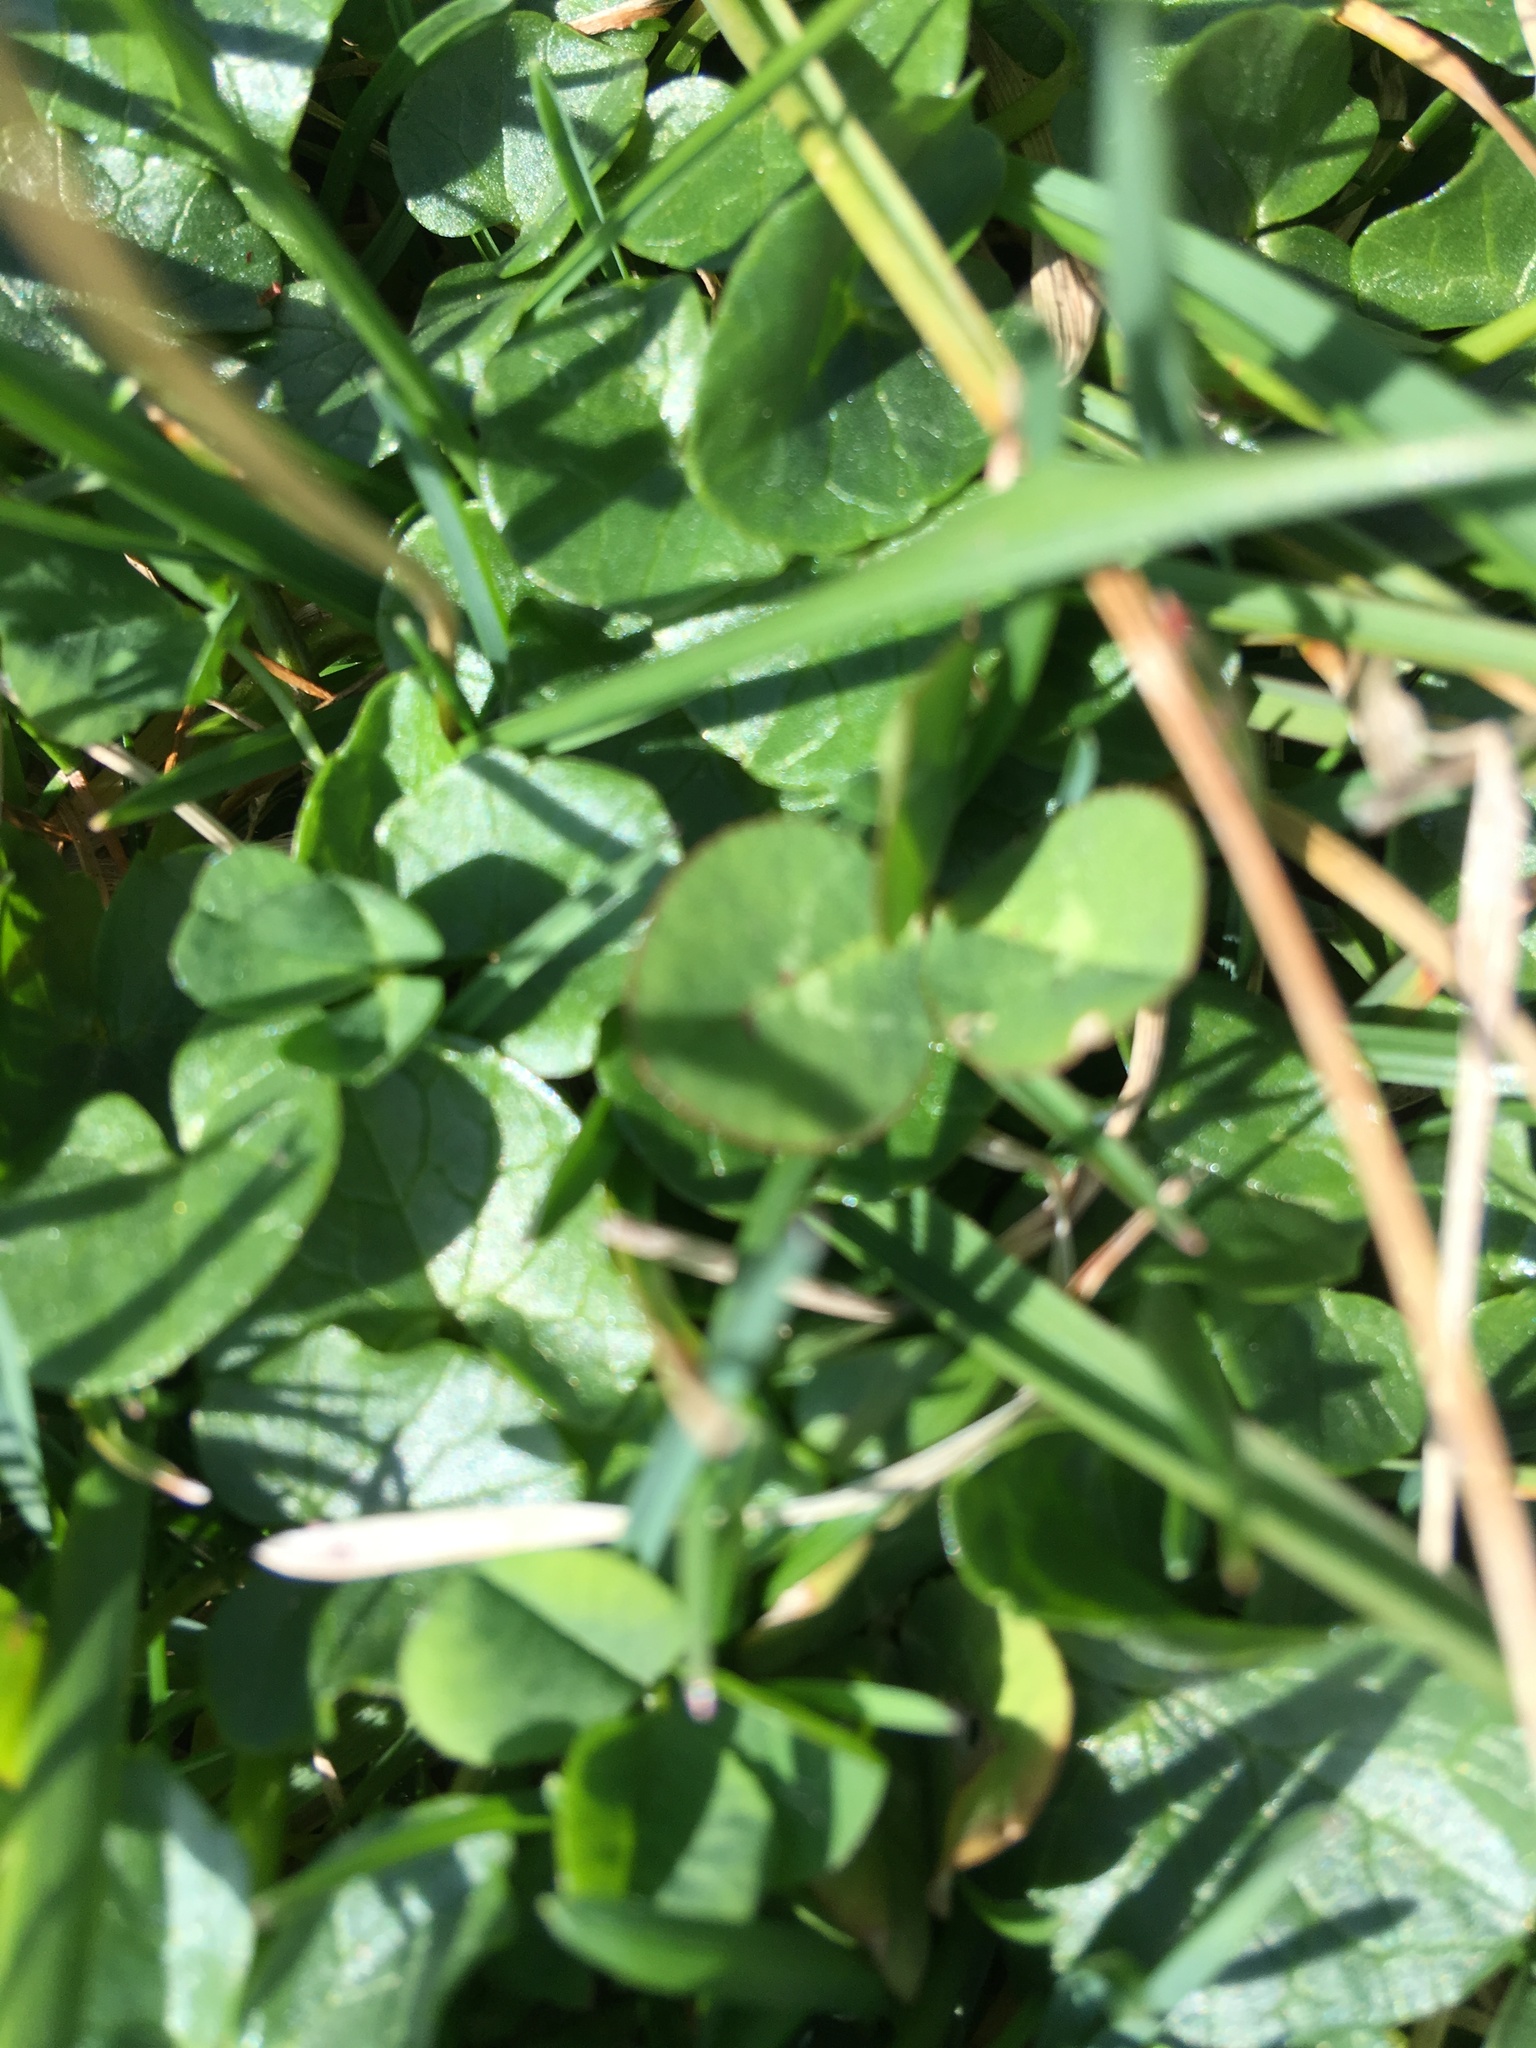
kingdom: Plantae
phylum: Tracheophyta
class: Magnoliopsida
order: Ranunculales
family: Ranunculaceae
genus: Ficaria
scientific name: Ficaria verna
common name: Lesser celandine
